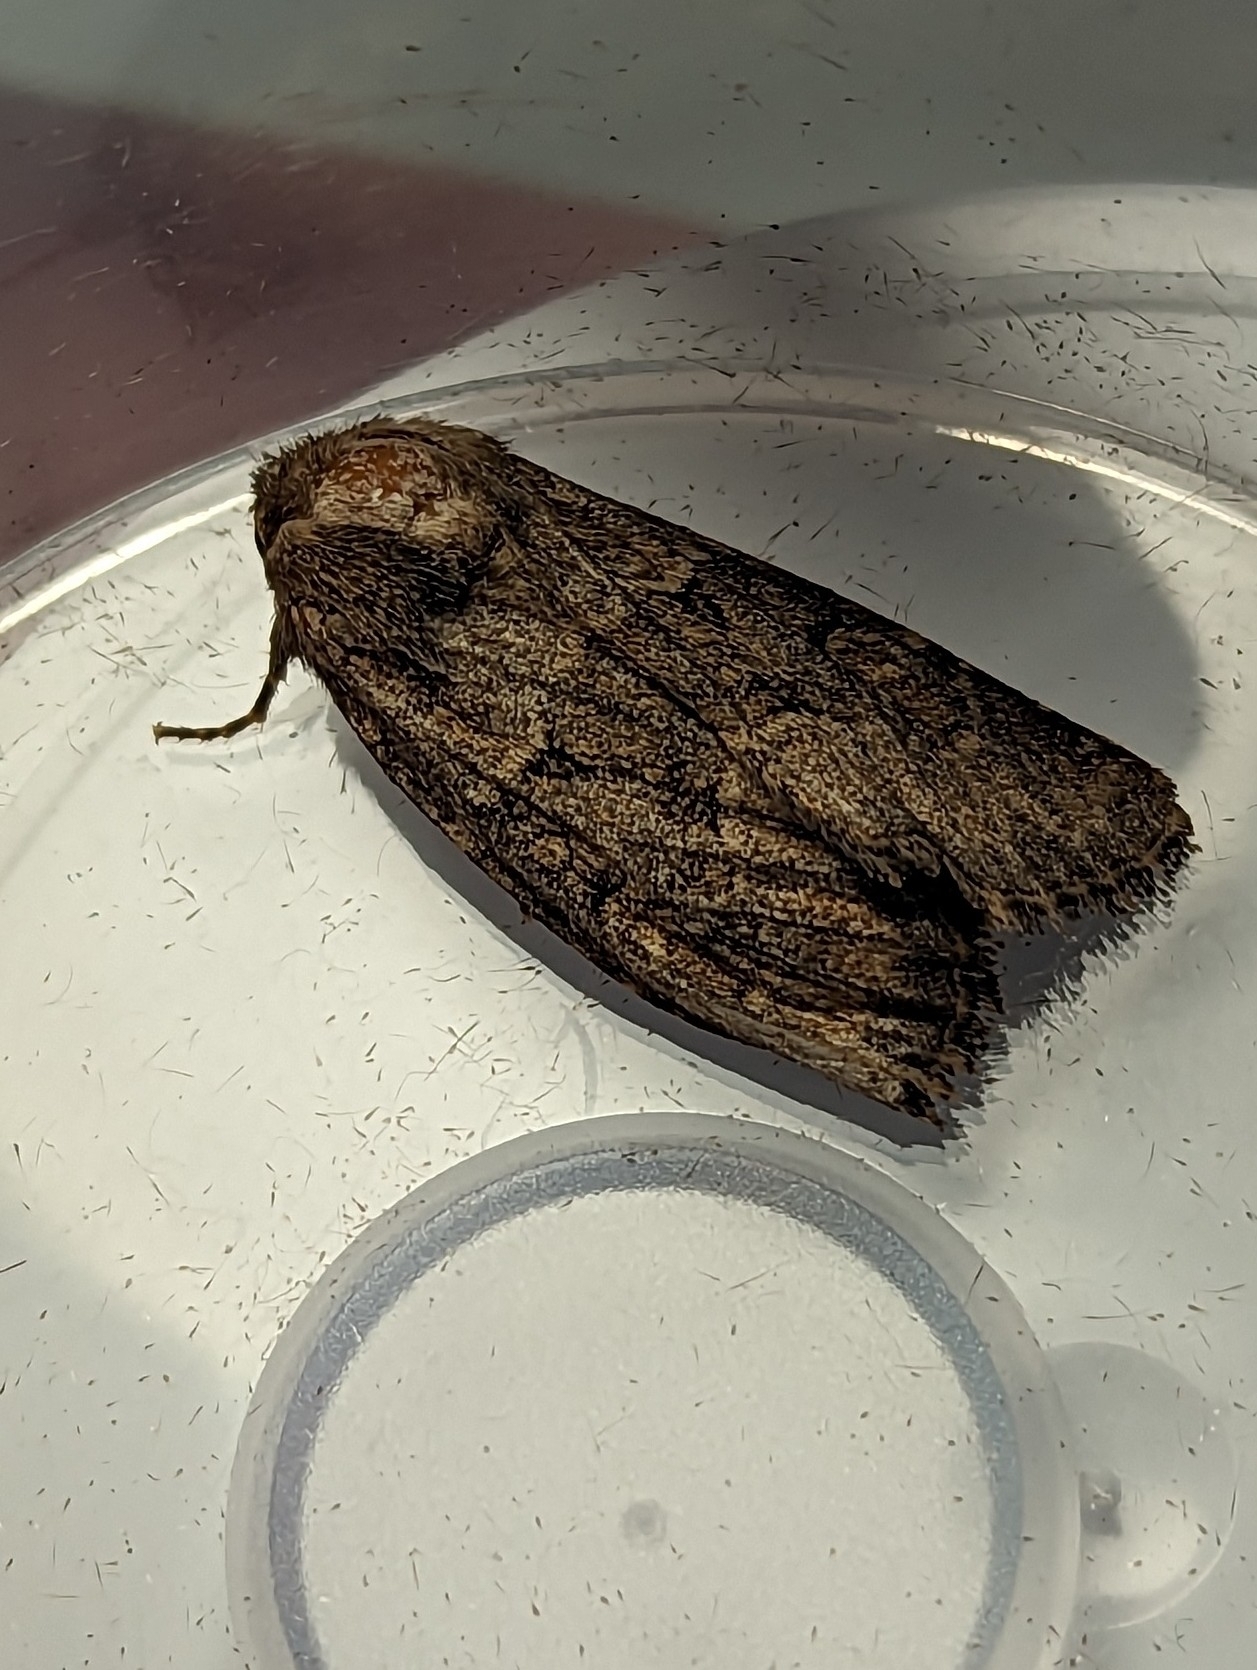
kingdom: Animalia
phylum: Arthropoda
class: Insecta
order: Lepidoptera
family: Noctuidae
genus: Luperina
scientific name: Luperina testacea
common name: Flounced rustic
